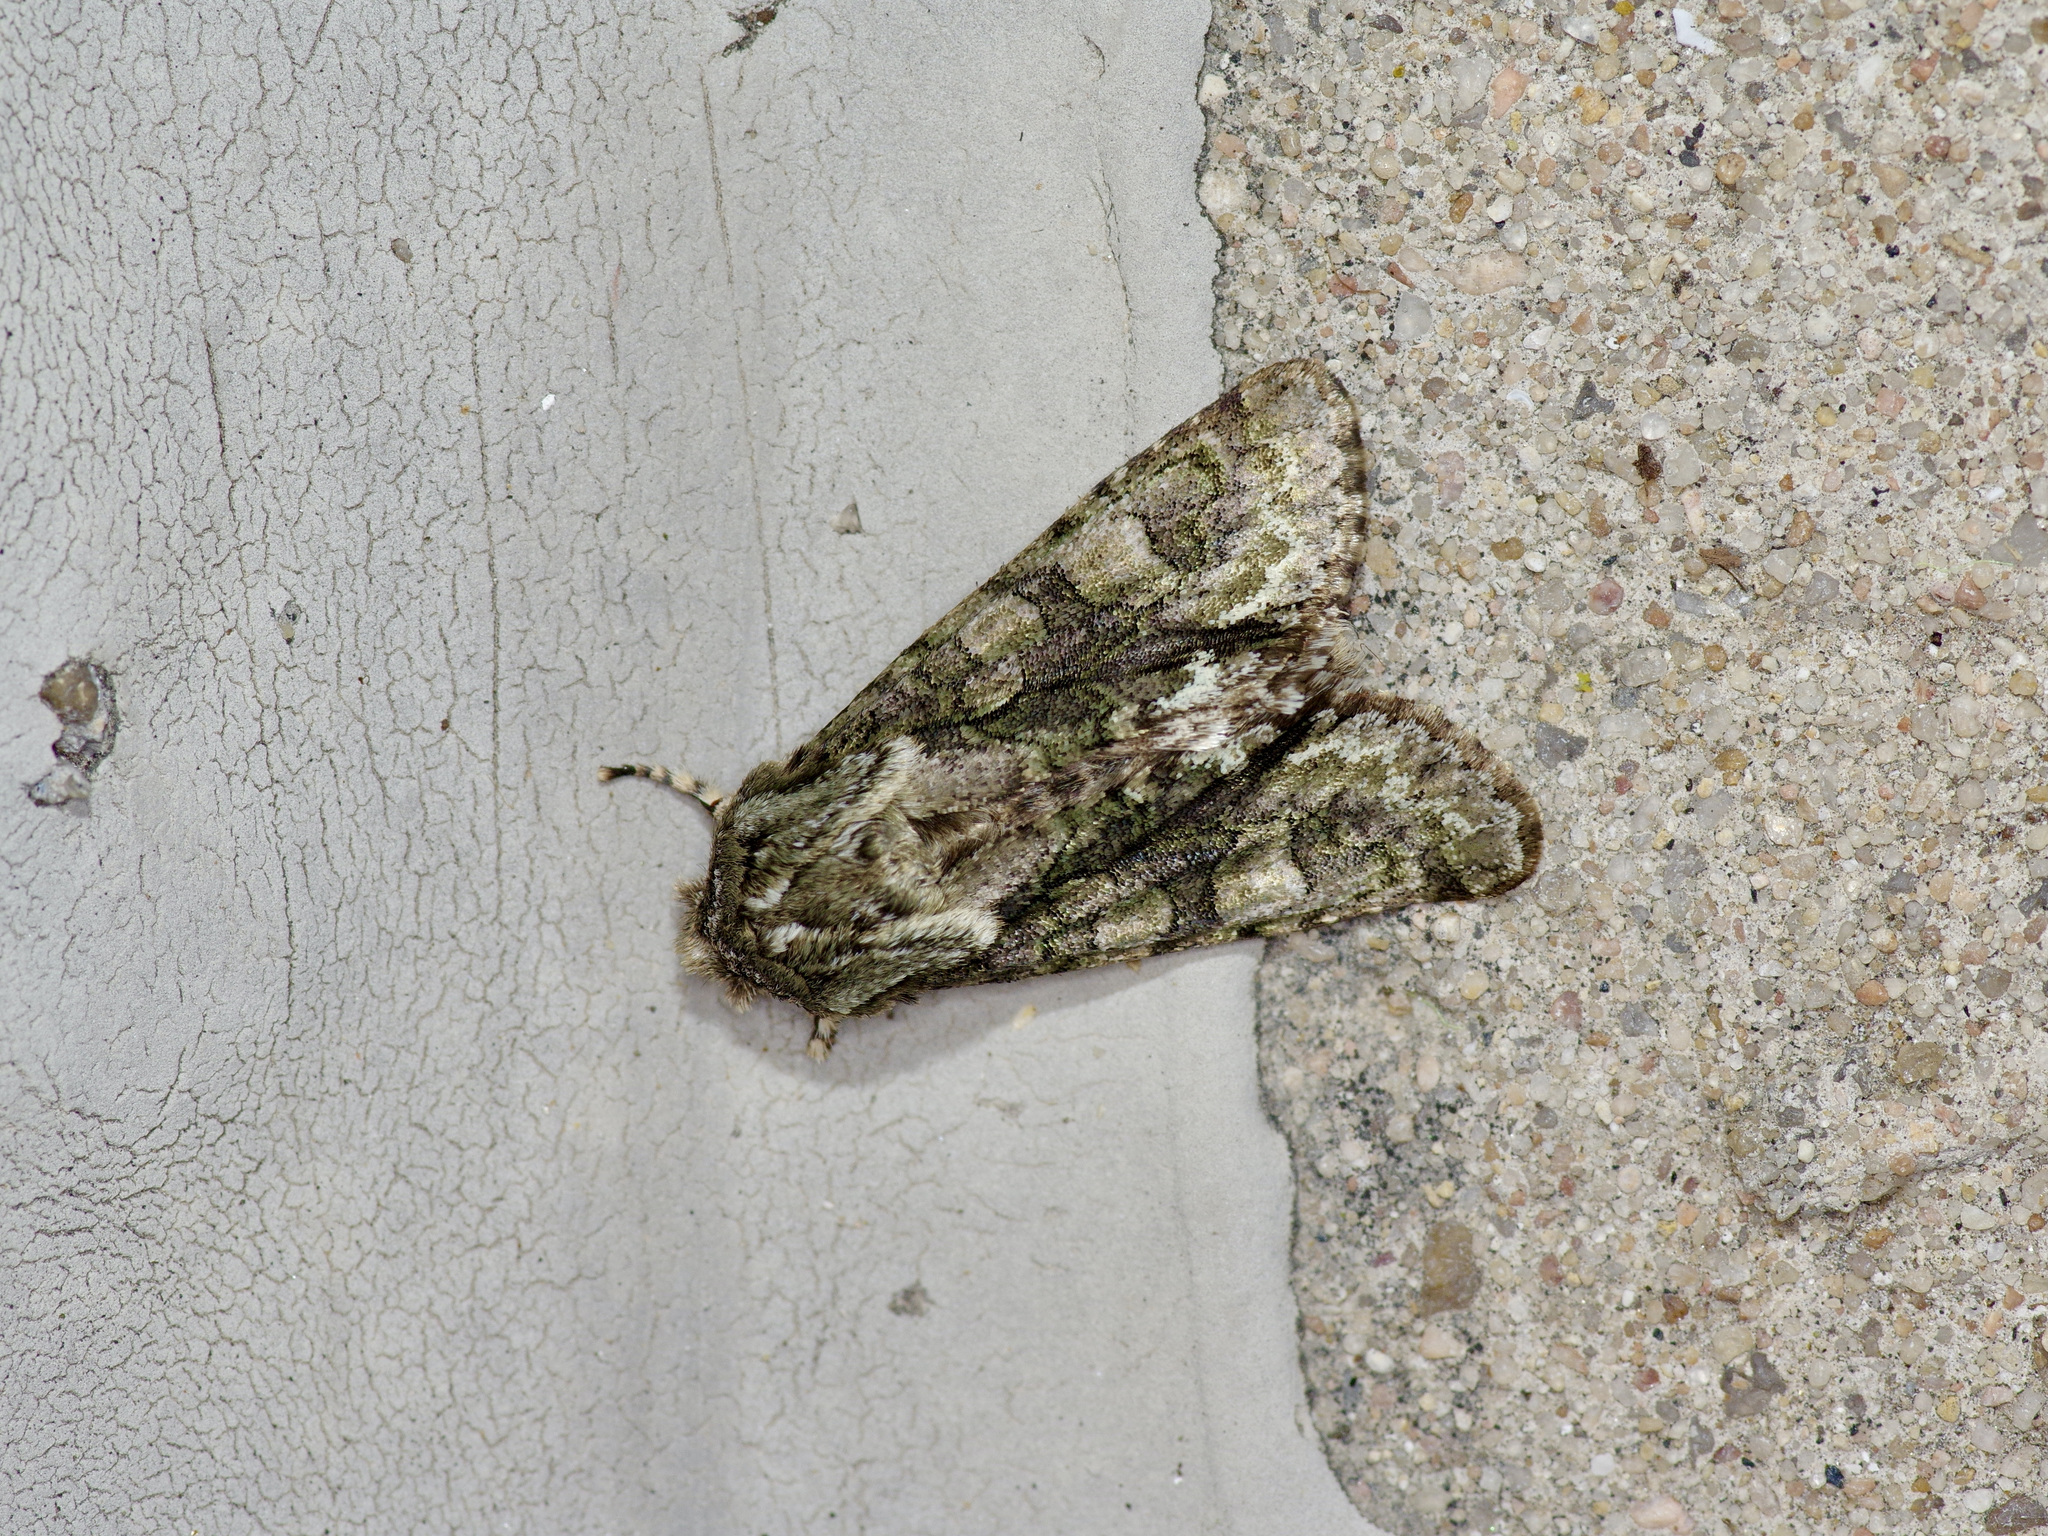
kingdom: Animalia
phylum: Arthropoda
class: Insecta
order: Lepidoptera
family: Noctuidae
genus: Psaphida
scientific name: Psaphida resumens
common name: Figure-eight sallow
